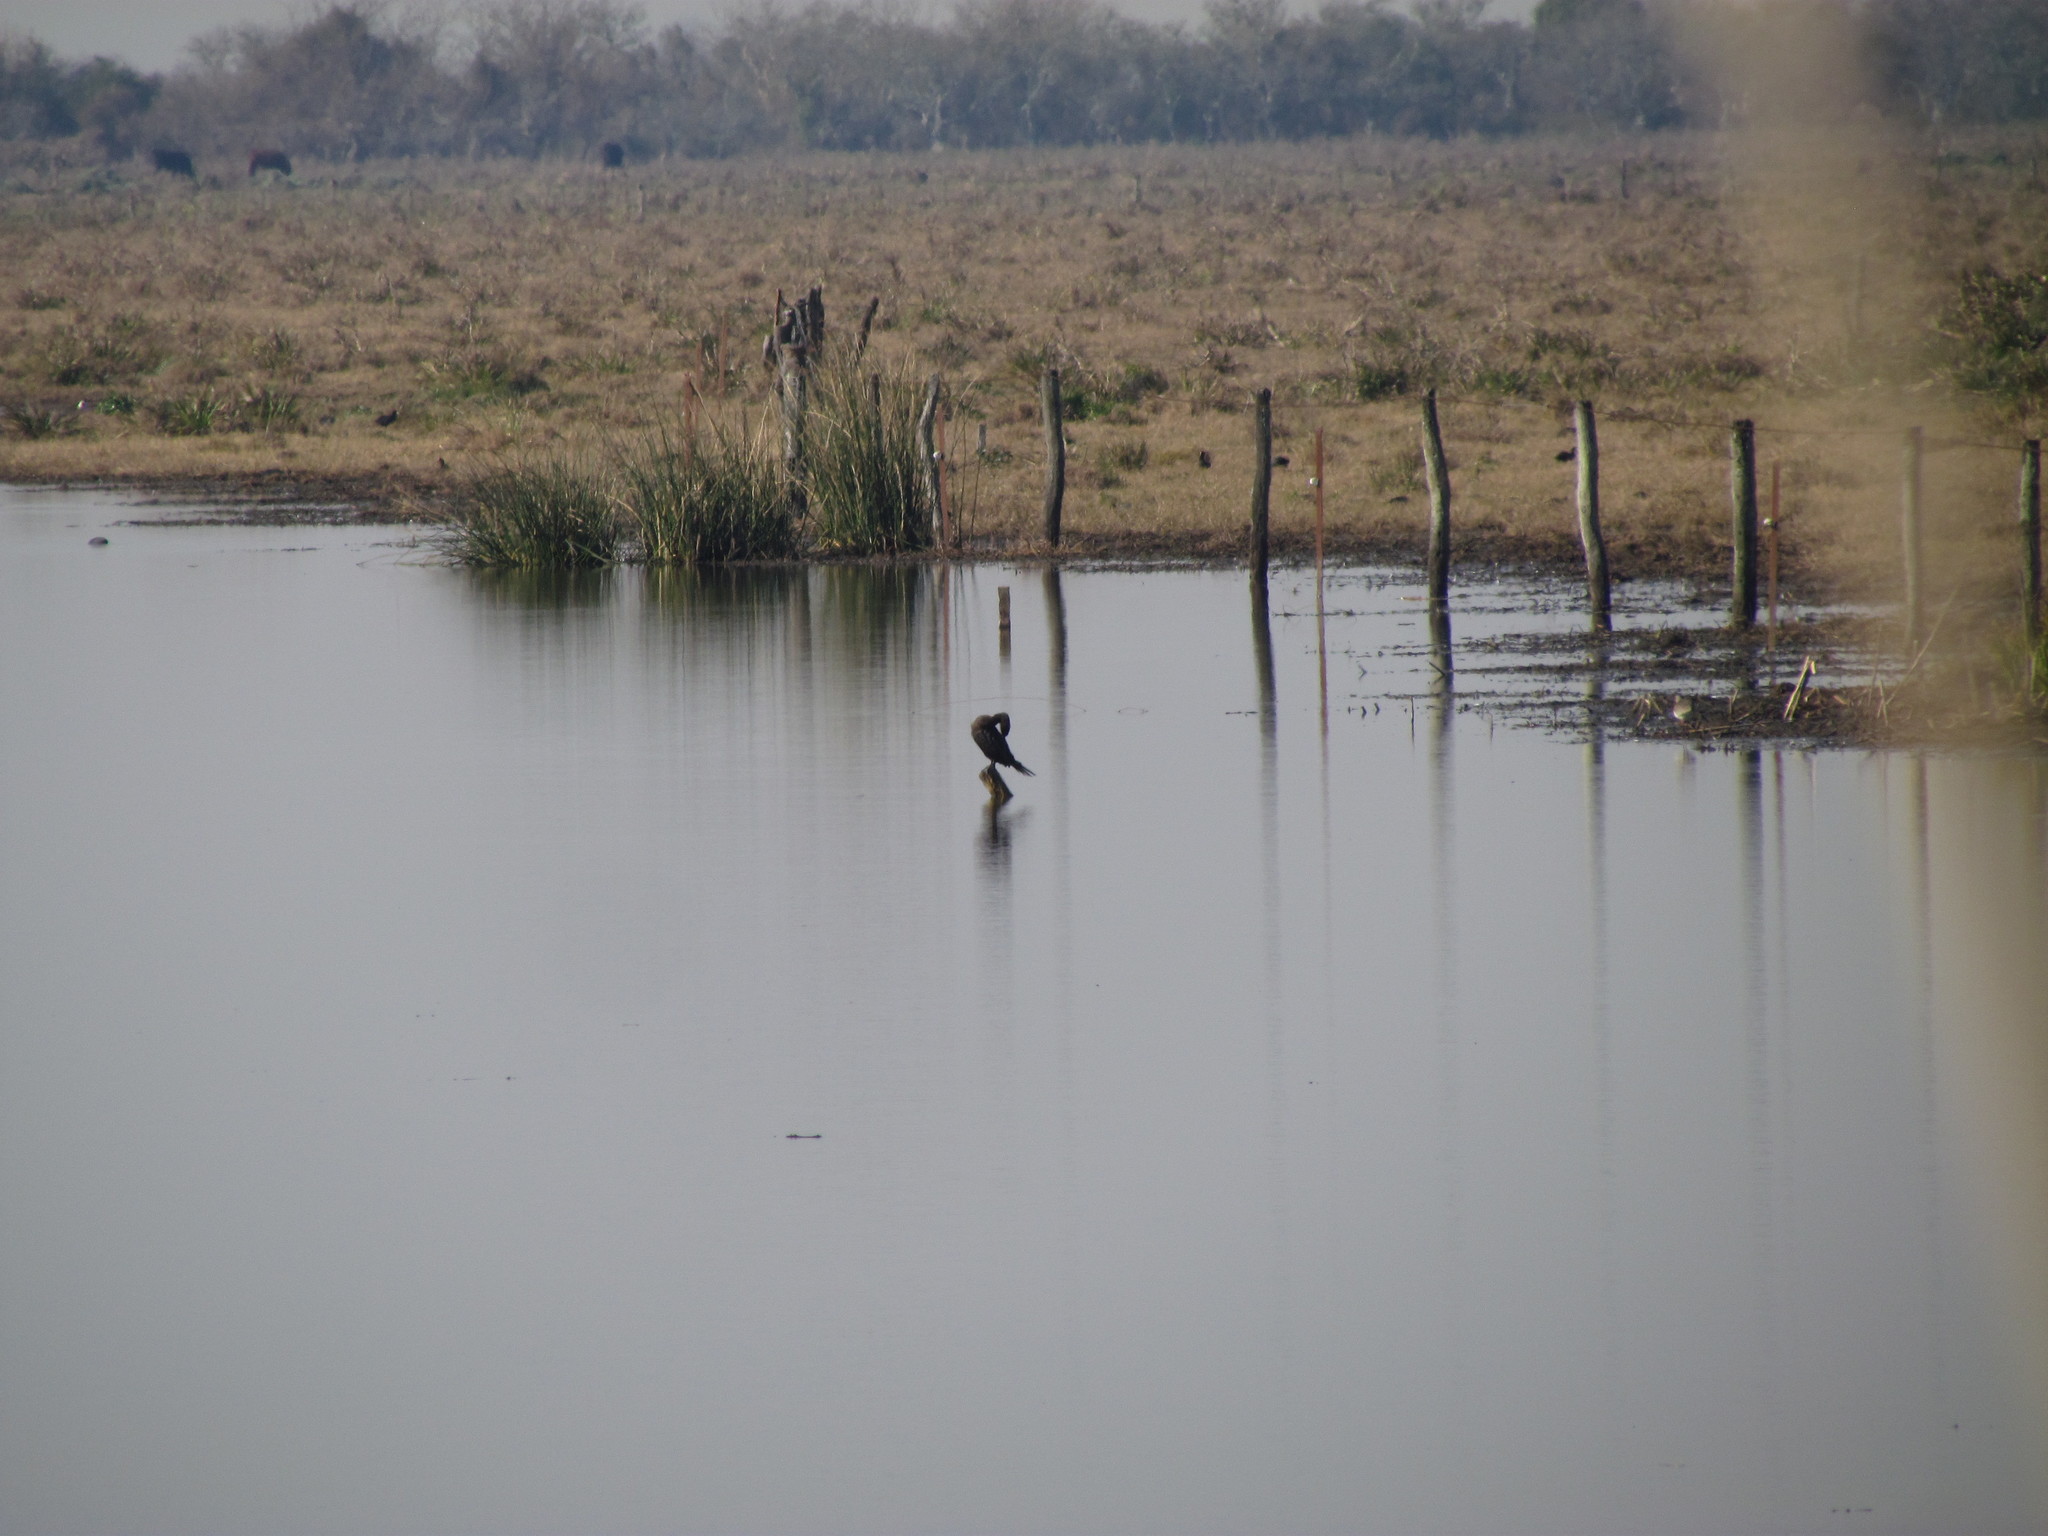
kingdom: Animalia
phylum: Chordata
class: Aves
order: Suliformes
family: Phalacrocoracidae
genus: Phalacrocorax
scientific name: Phalacrocorax brasilianus
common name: Neotropic cormorant
